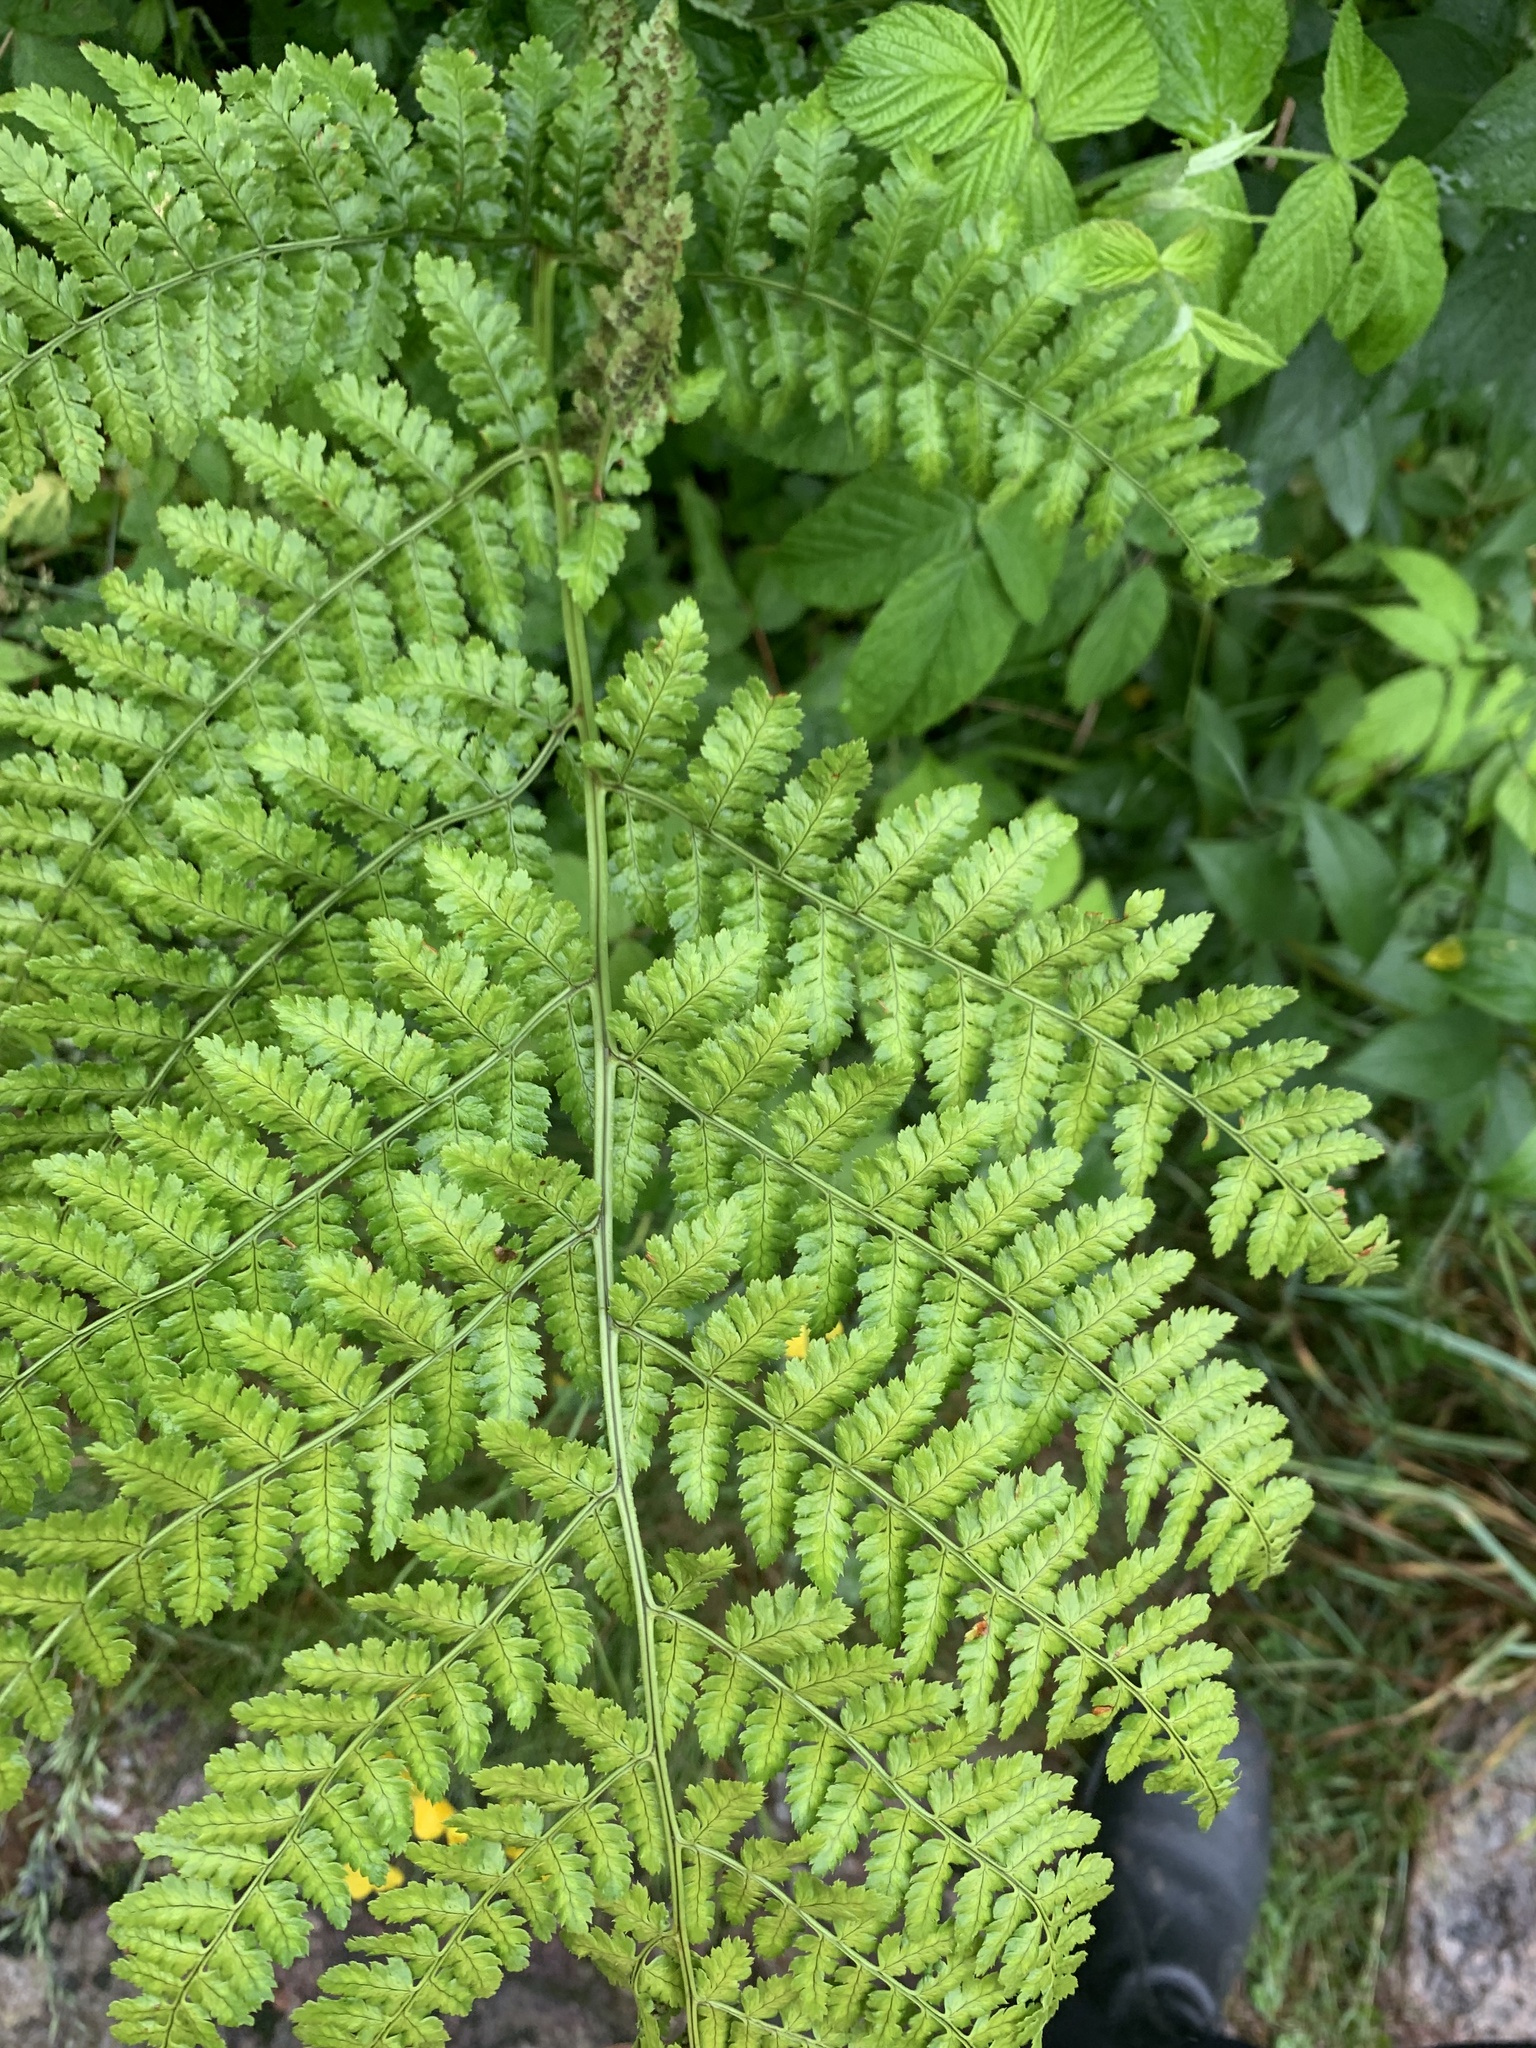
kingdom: Plantae
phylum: Tracheophyta
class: Polypodiopsida
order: Polypodiales
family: Dryopteridaceae
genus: Dryopteris
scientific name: Dryopteris intermedia
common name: Evergreen wood fern
